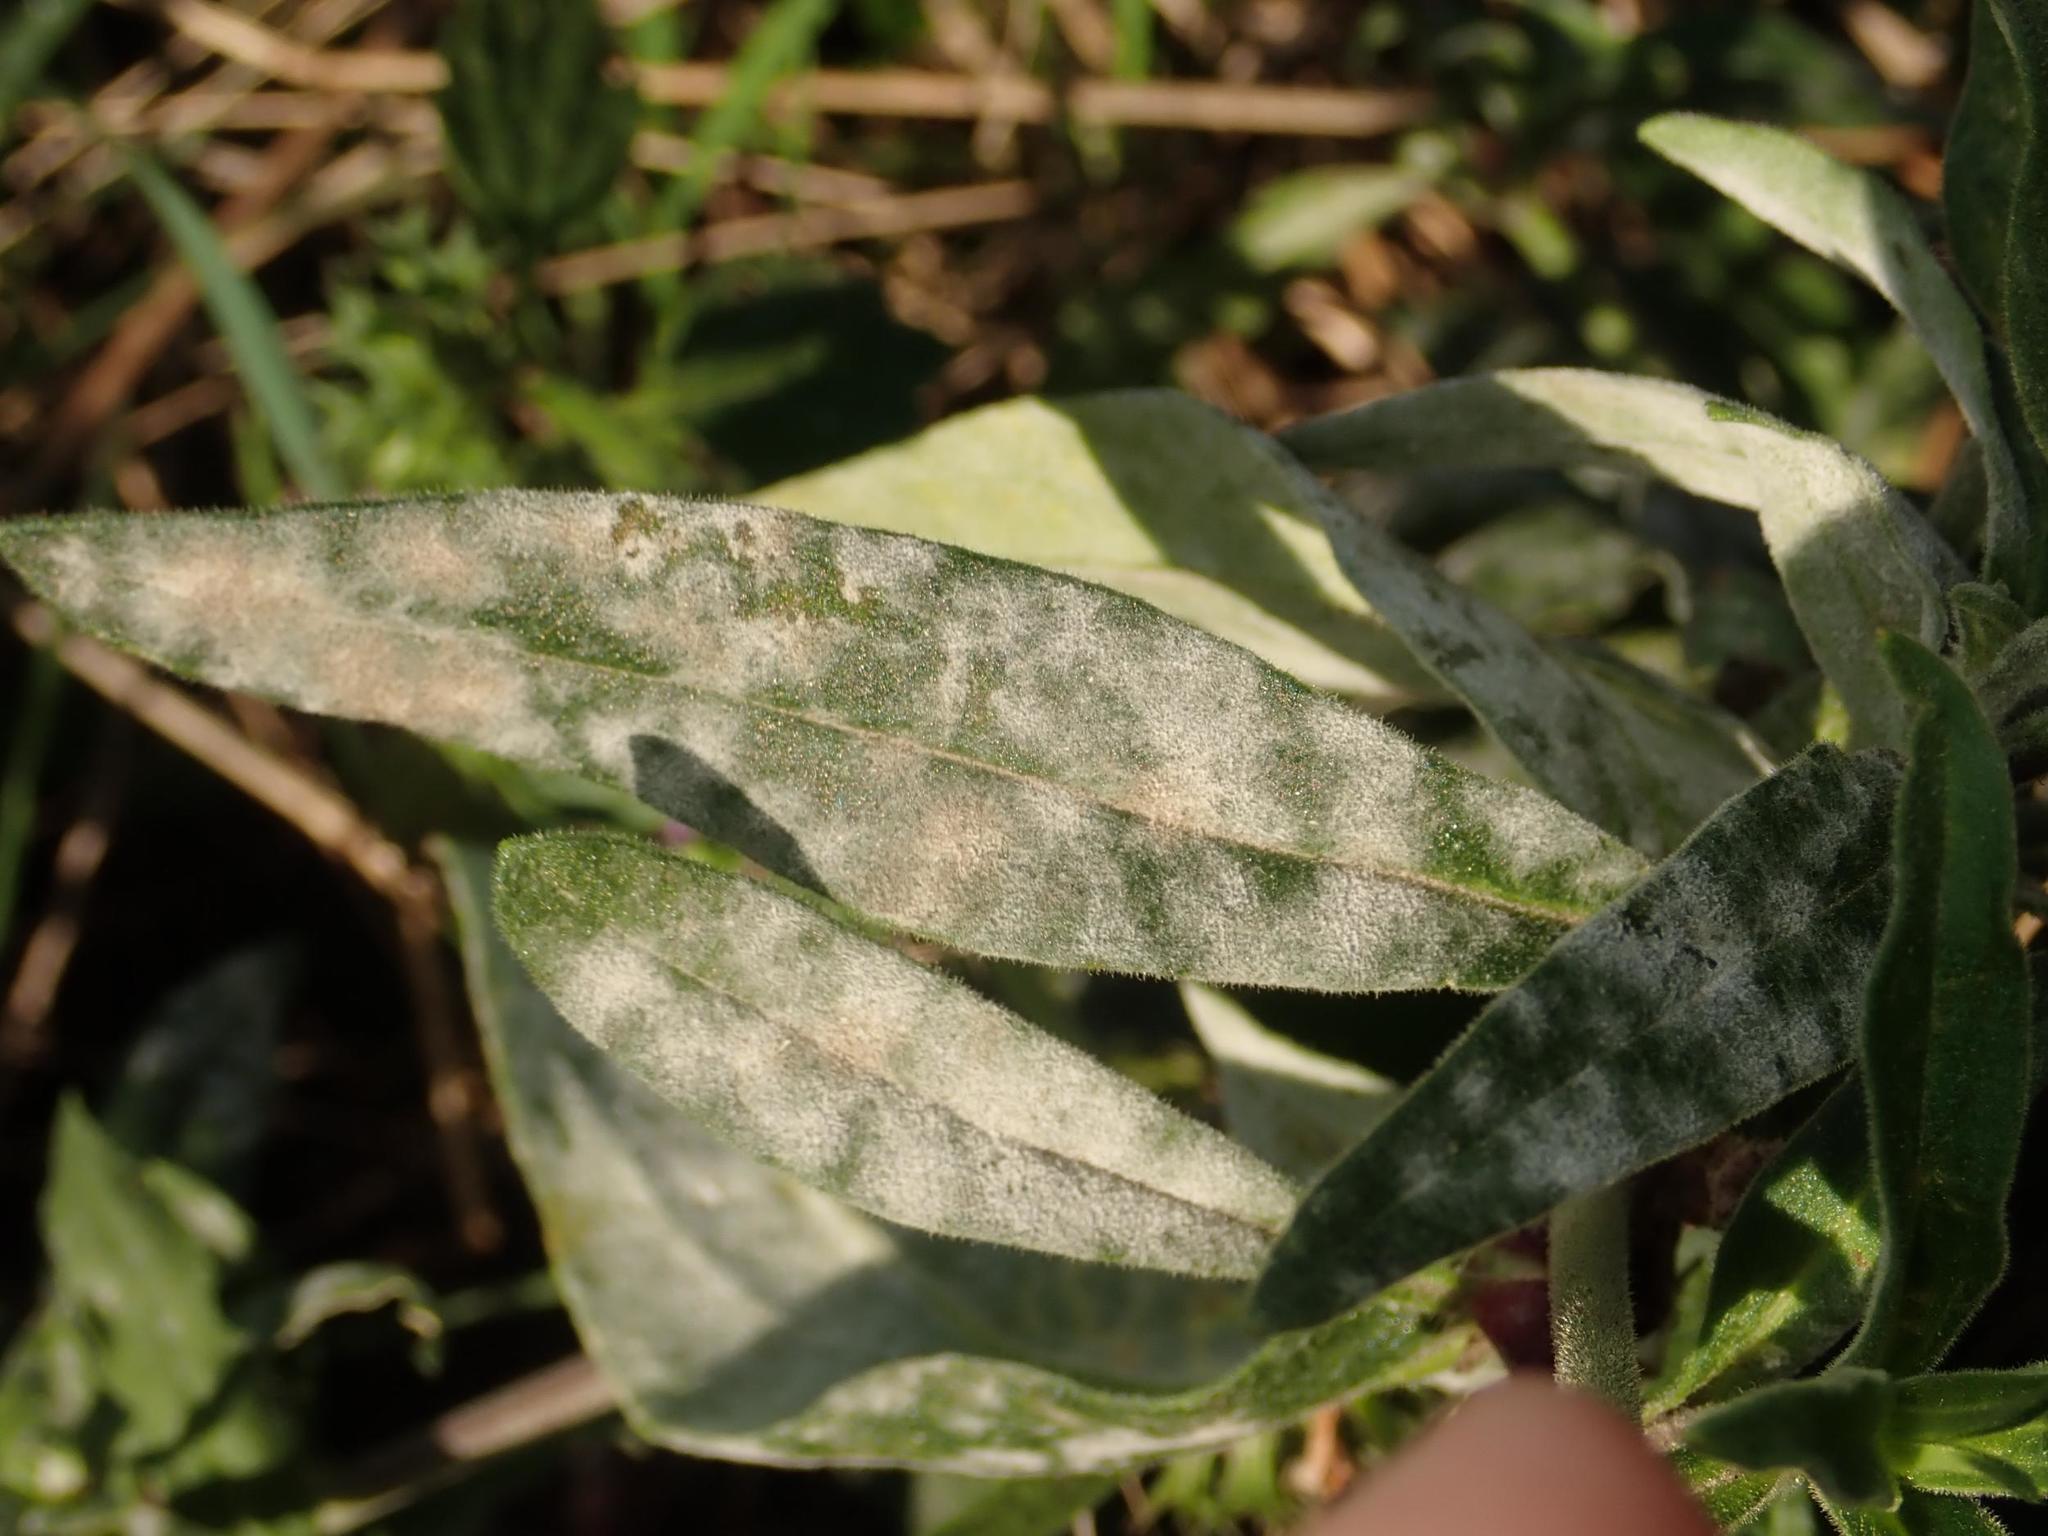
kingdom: Fungi
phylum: Ascomycota
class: Leotiomycetes
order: Helotiales
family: Erysiphaceae
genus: Erysiphe
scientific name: Erysiphe buhrii
